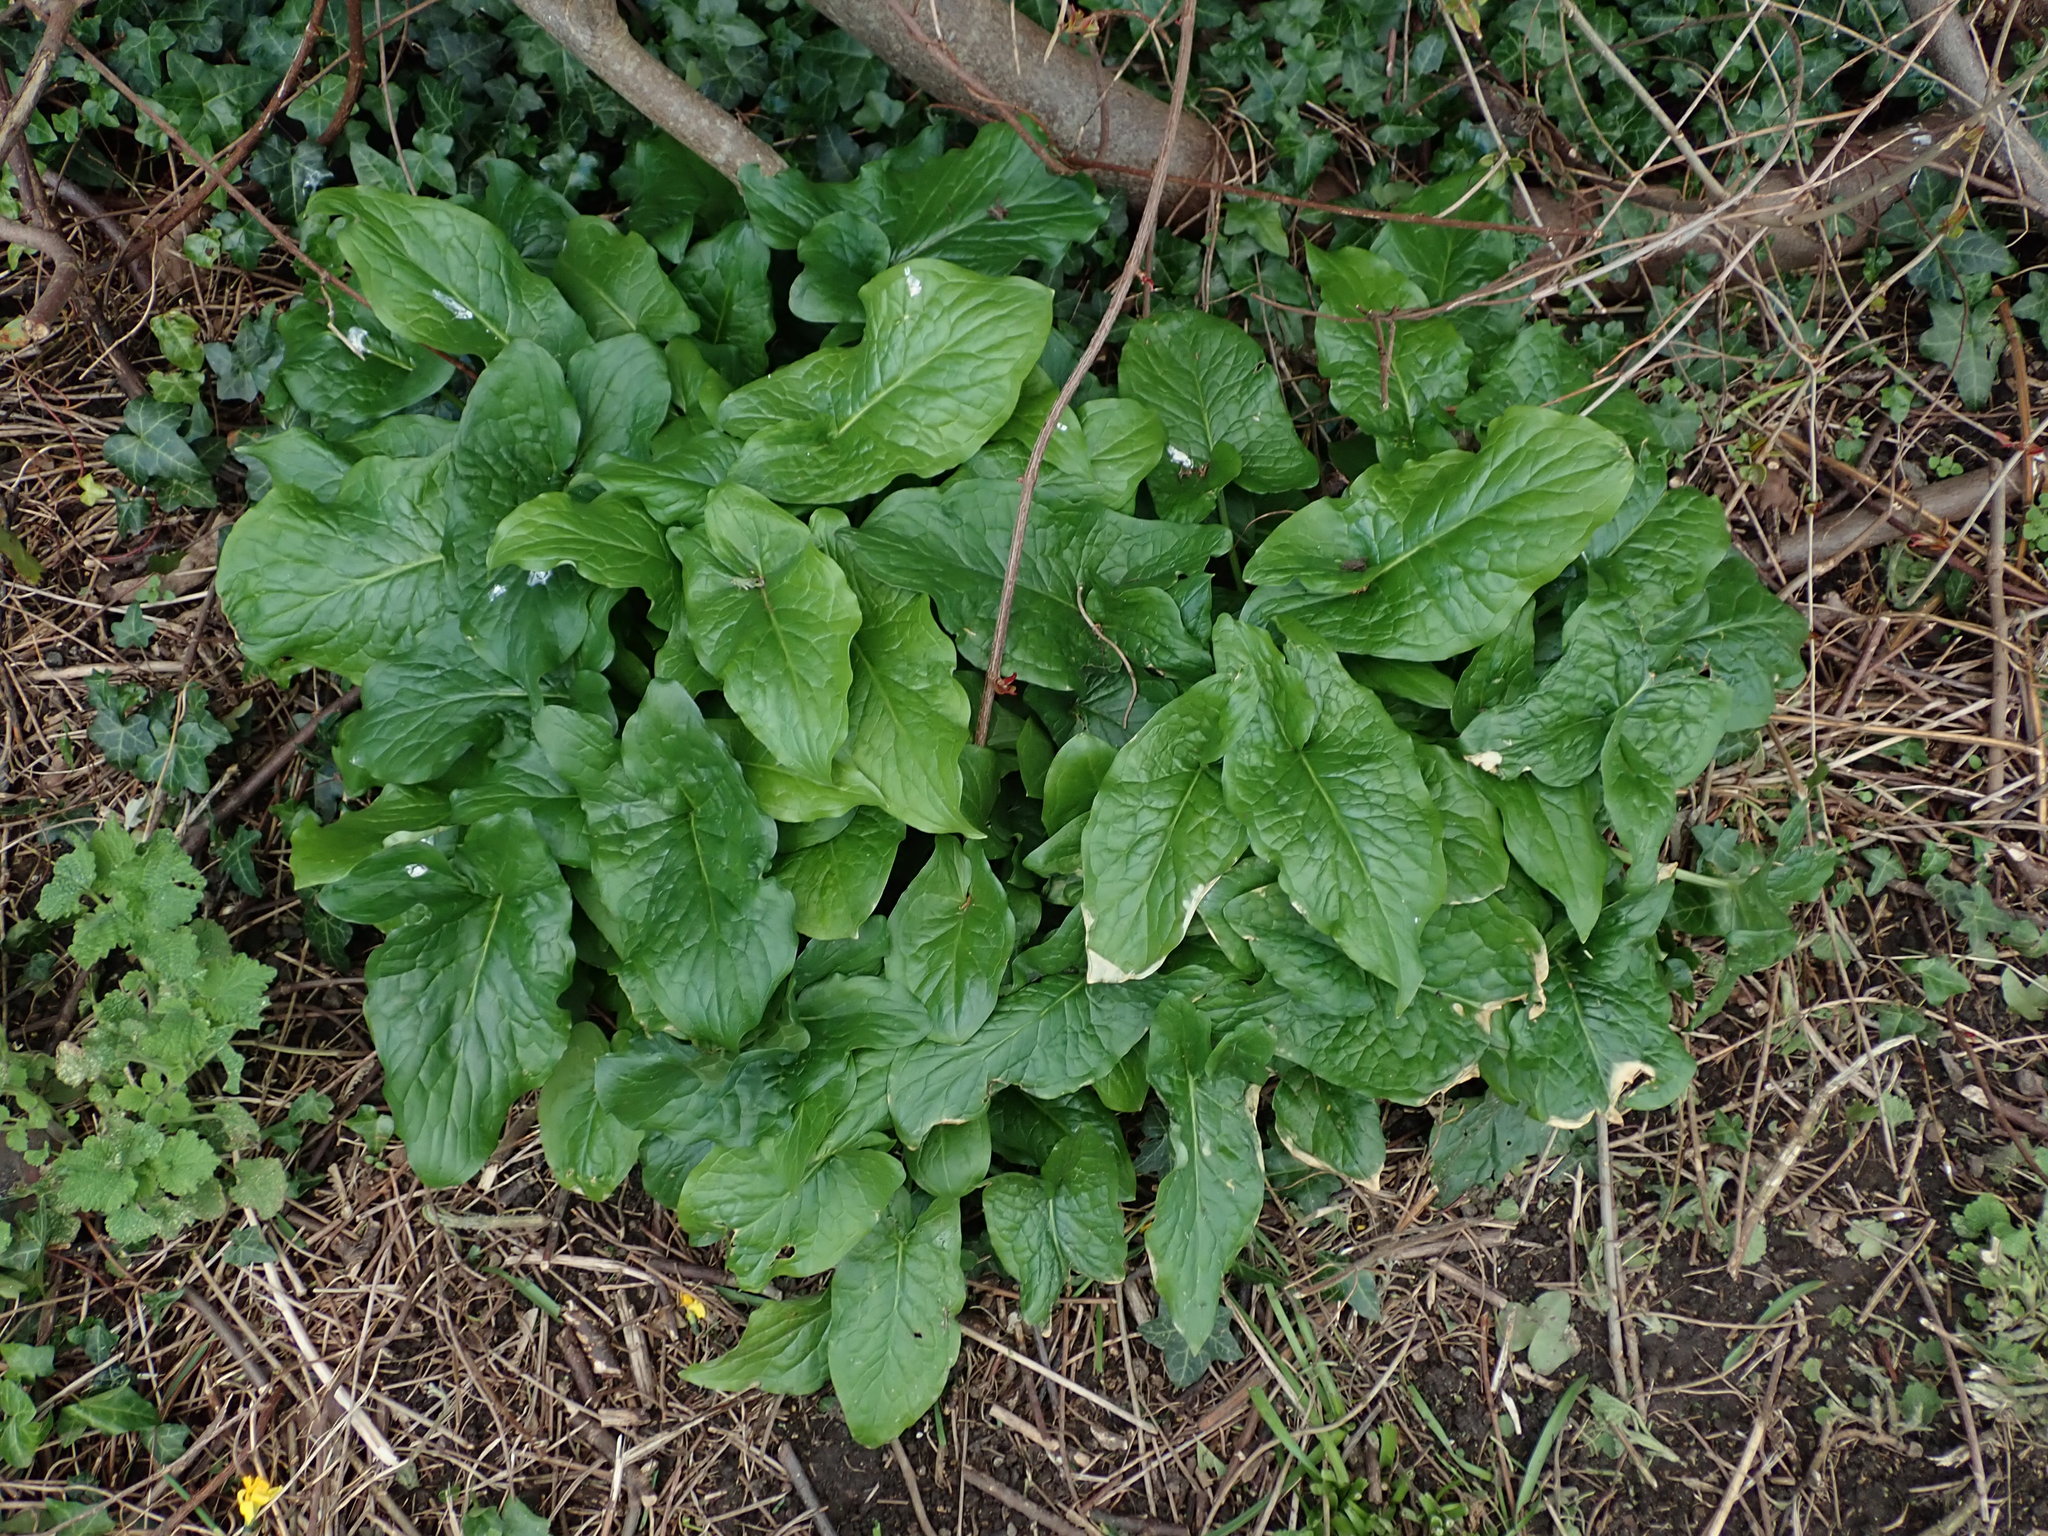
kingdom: Plantae
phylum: Tracheophyta
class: Liliopsida
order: Alismatales
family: Araceae
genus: Arum
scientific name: Arum maculatum
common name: Lords-and-ladies
